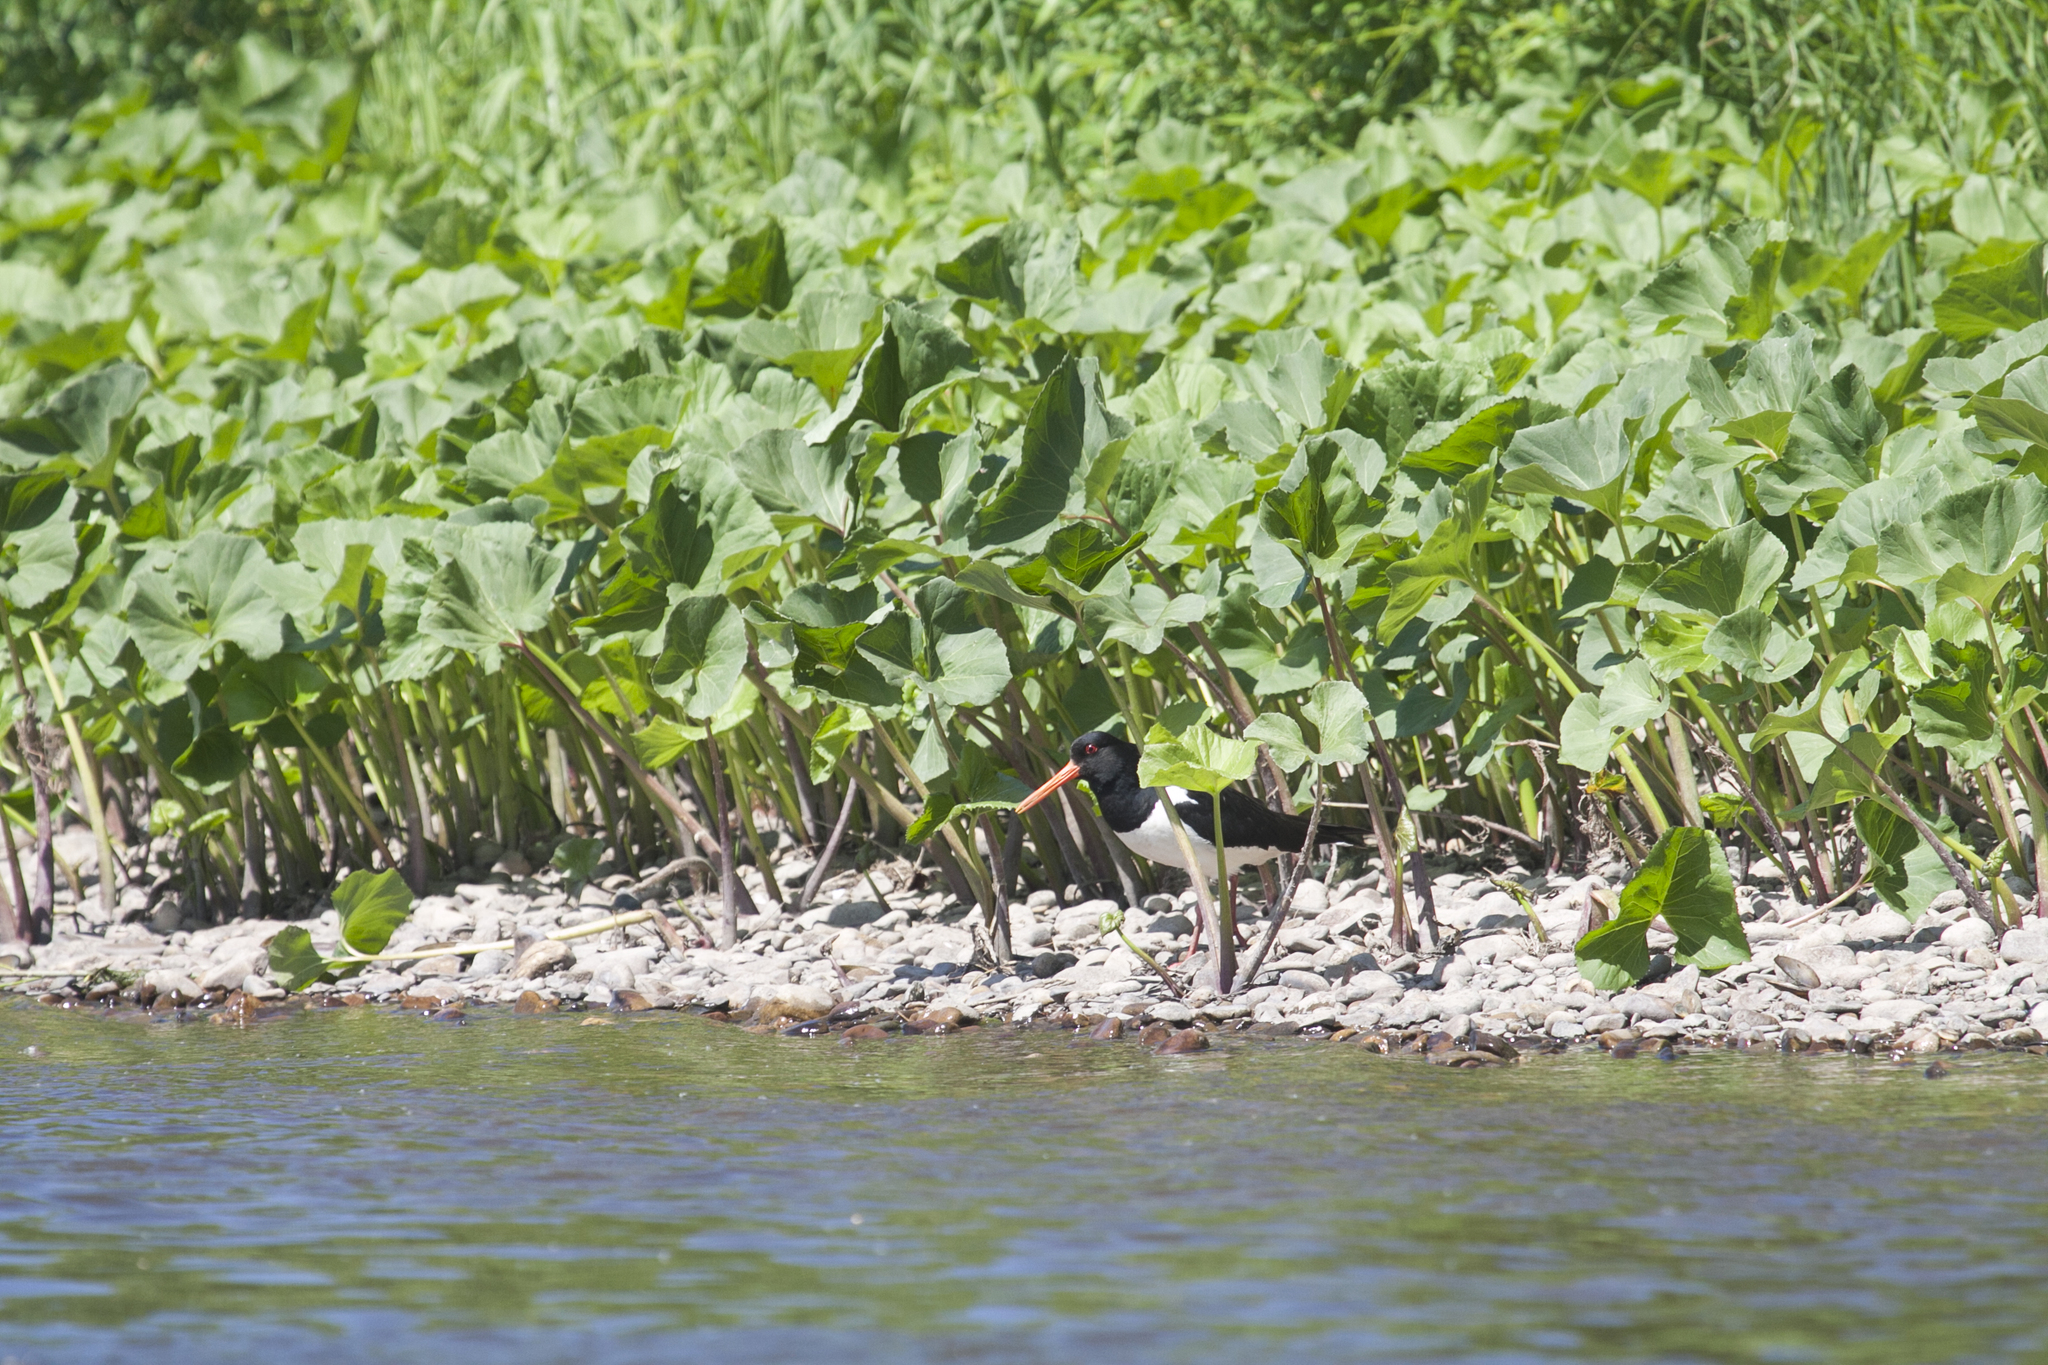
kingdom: Animalia
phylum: Chordata
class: Aves
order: Charadriiformes
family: Haematopodidae
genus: Haematopus
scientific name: Haematopus ostralegus
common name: Eurasian oystercatcher
